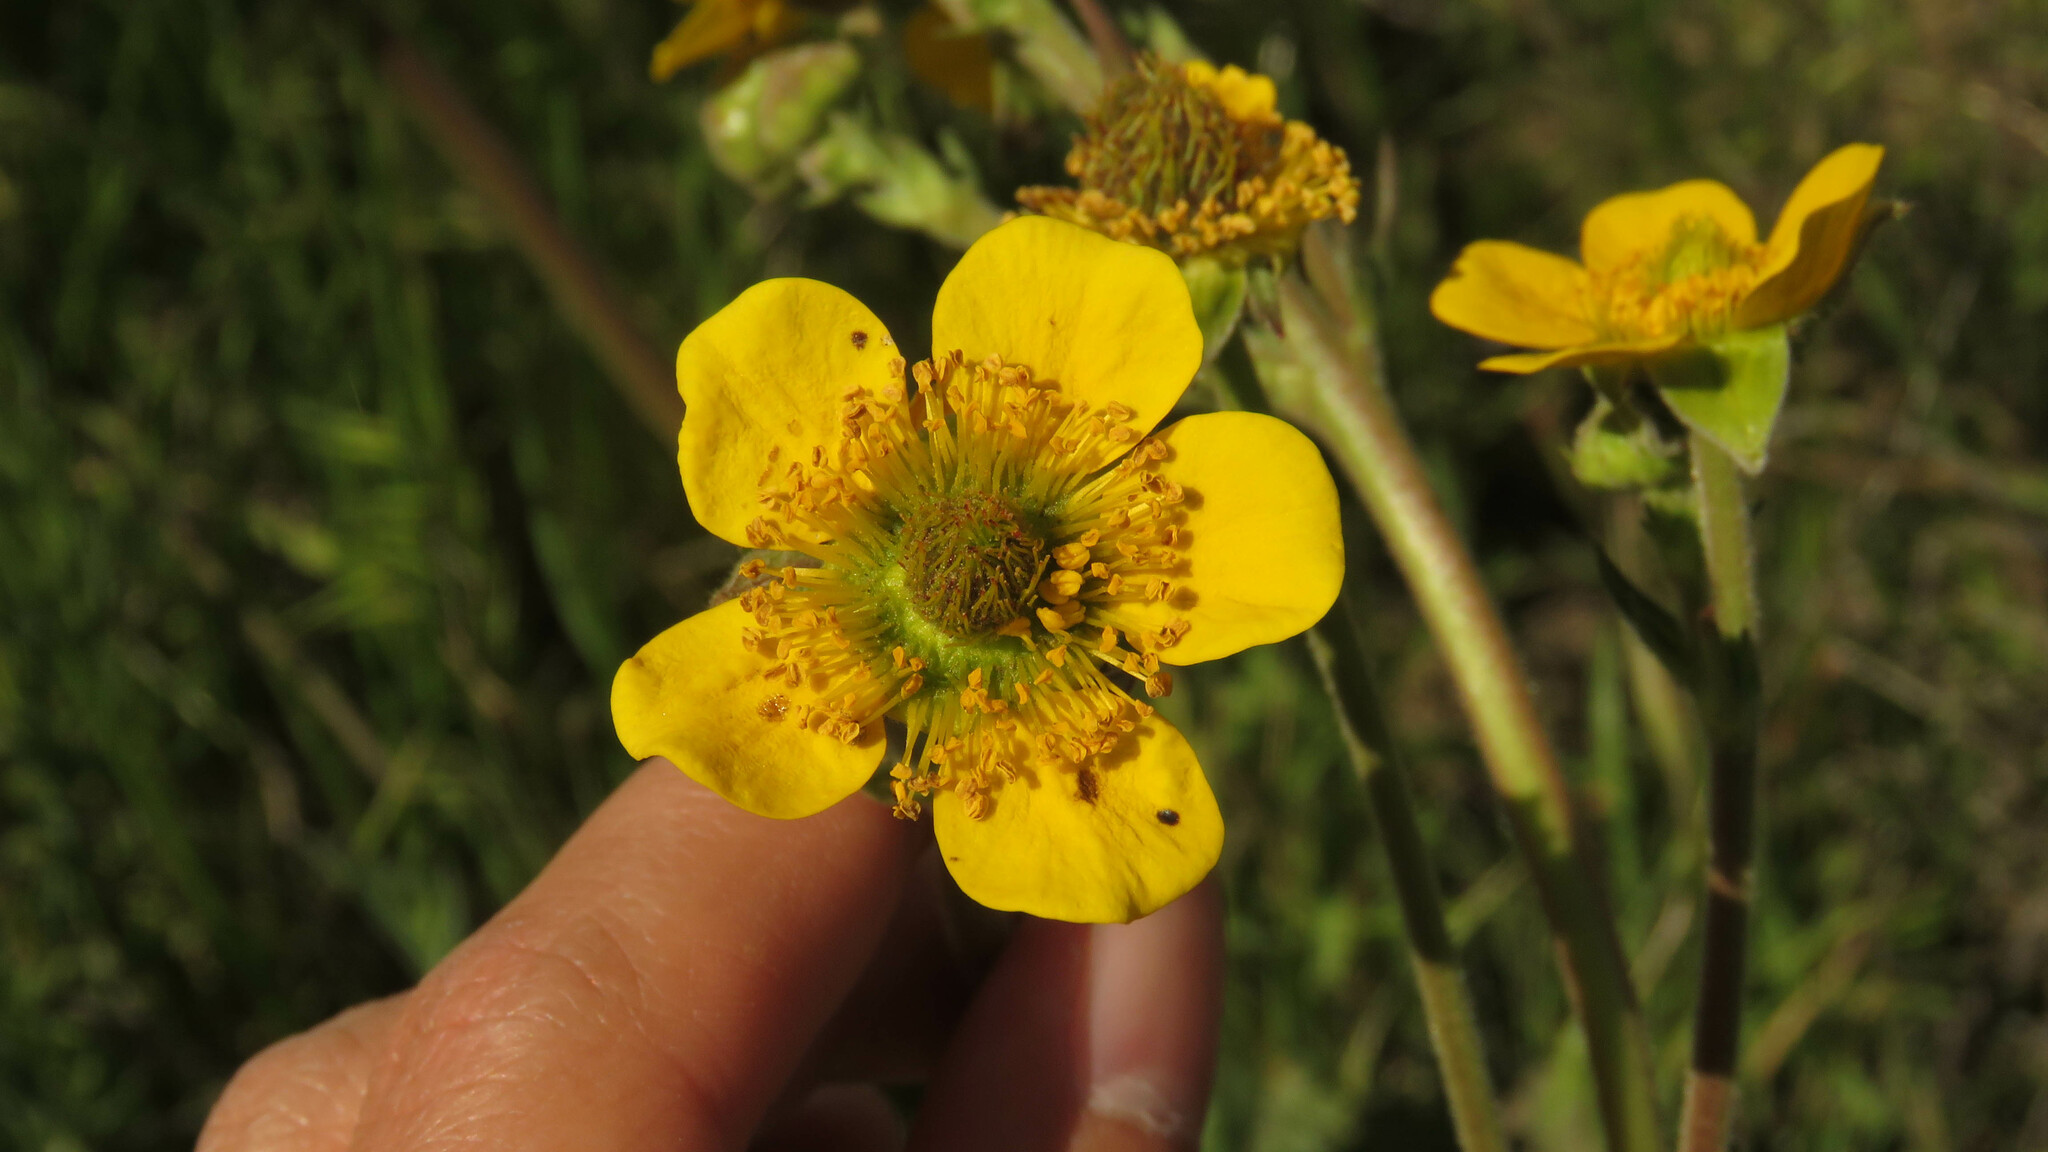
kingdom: Plantae
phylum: Tracheophyta
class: Magnoliopsida
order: Rosales
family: Rosaceae
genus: Geum
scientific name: Geum magellanicum
